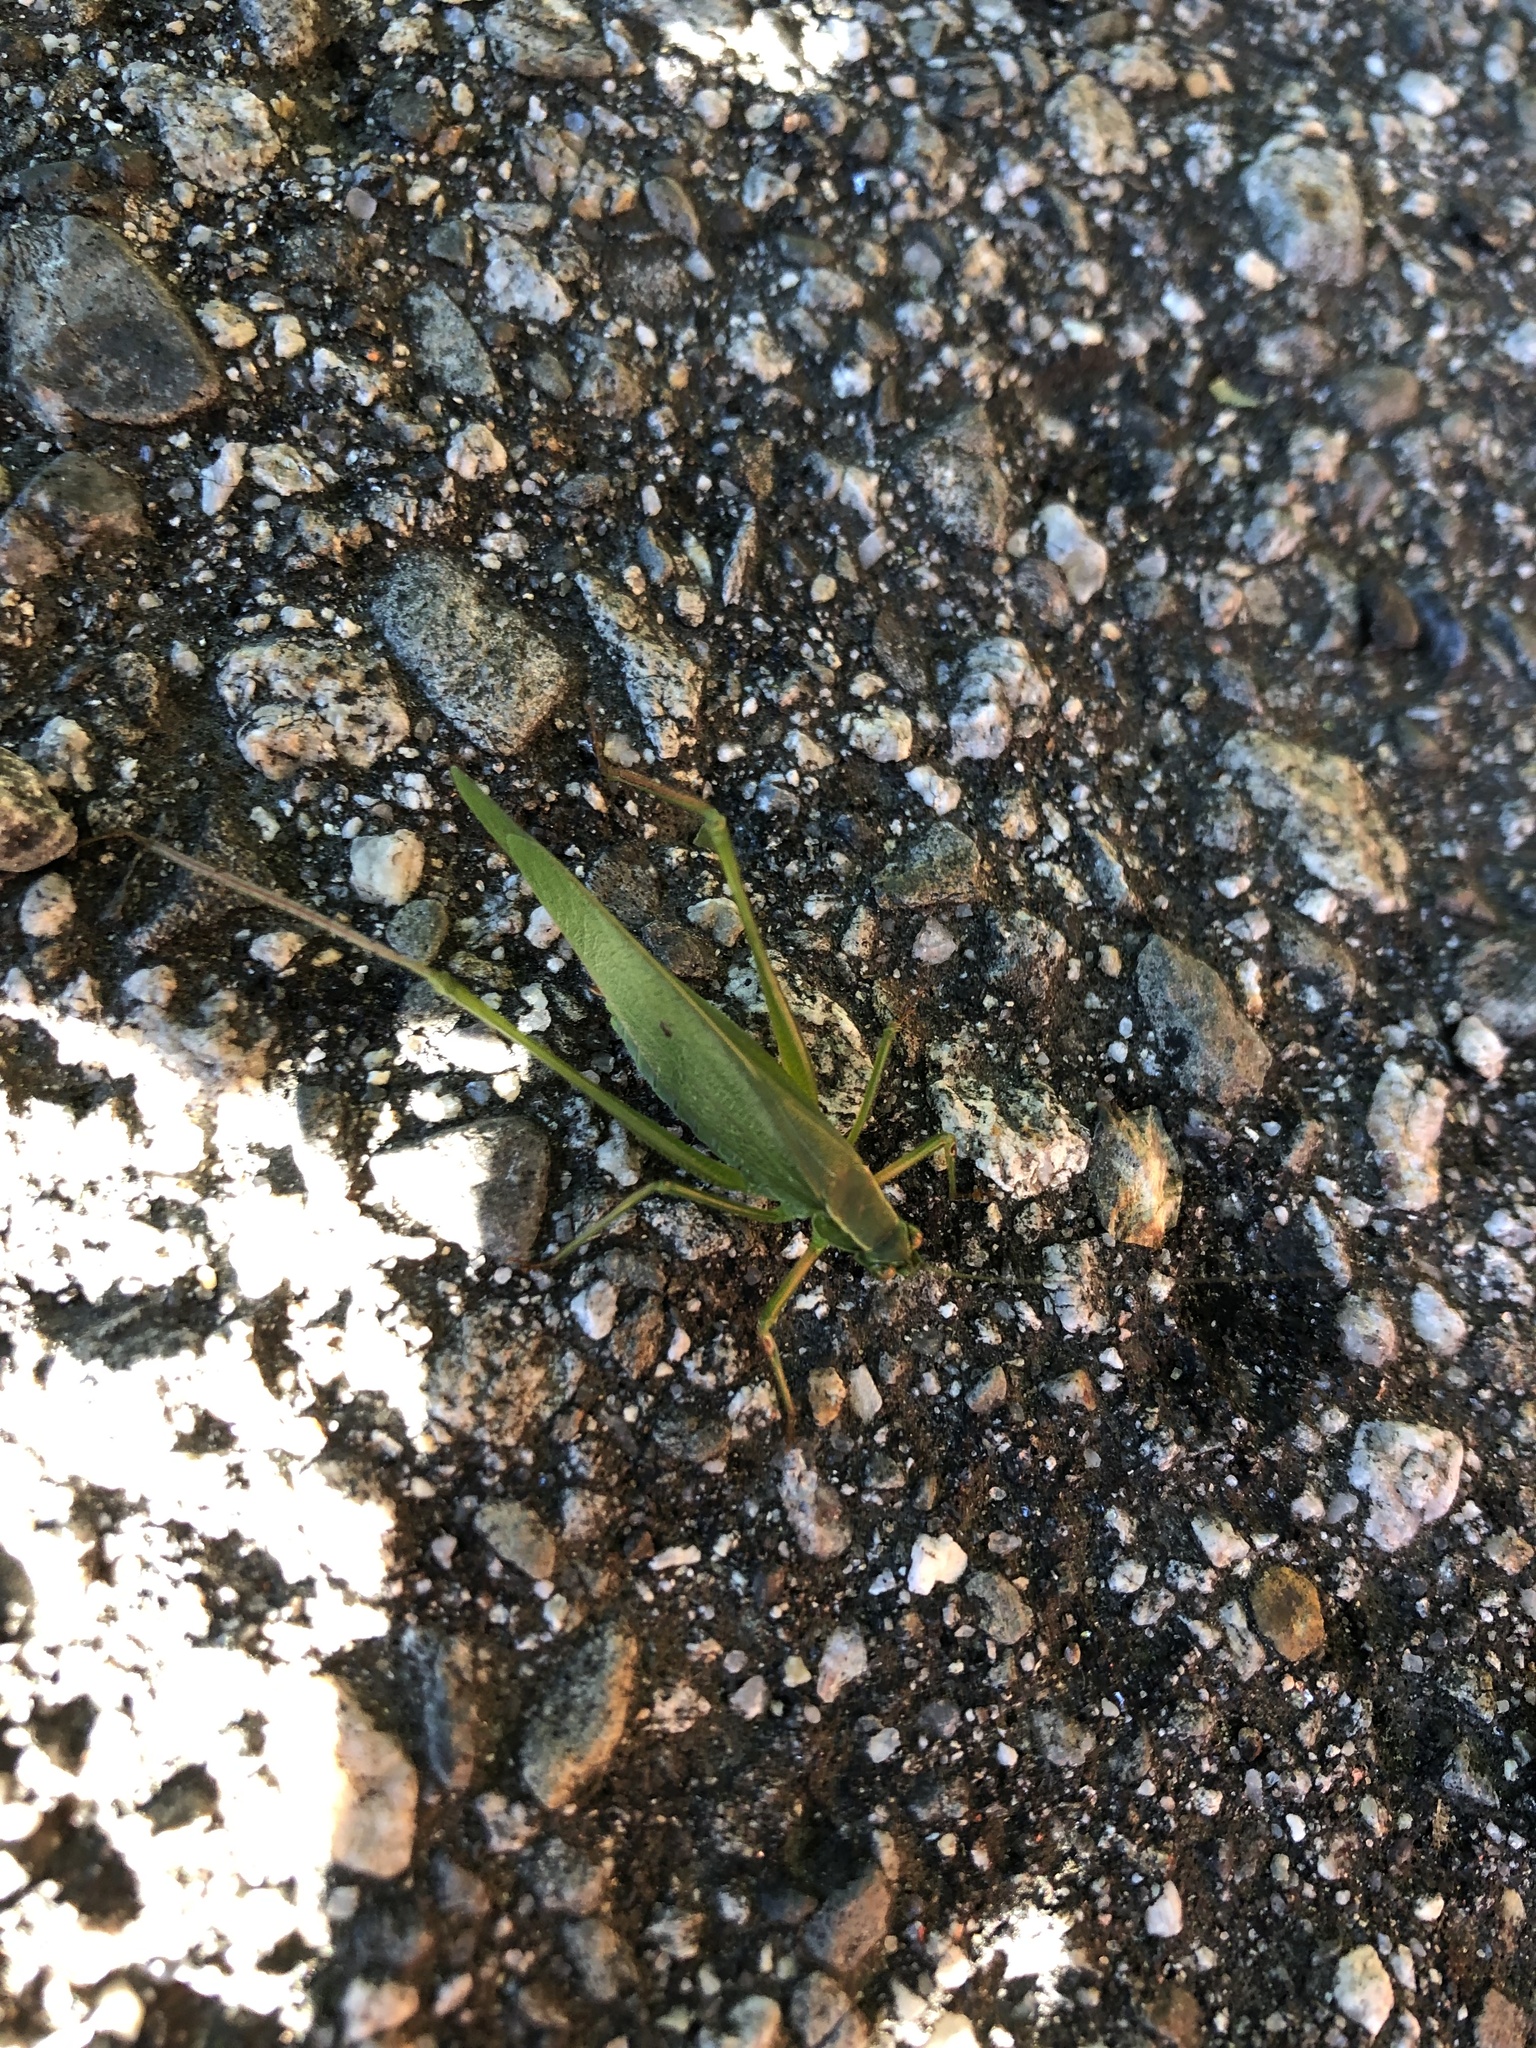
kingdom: Animalia
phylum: Arthropoda
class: Insecta
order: Orthoptera
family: Tettigoniidae
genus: Scudderia
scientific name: Scudderia furcata
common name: Fork-tailed bush katydid
